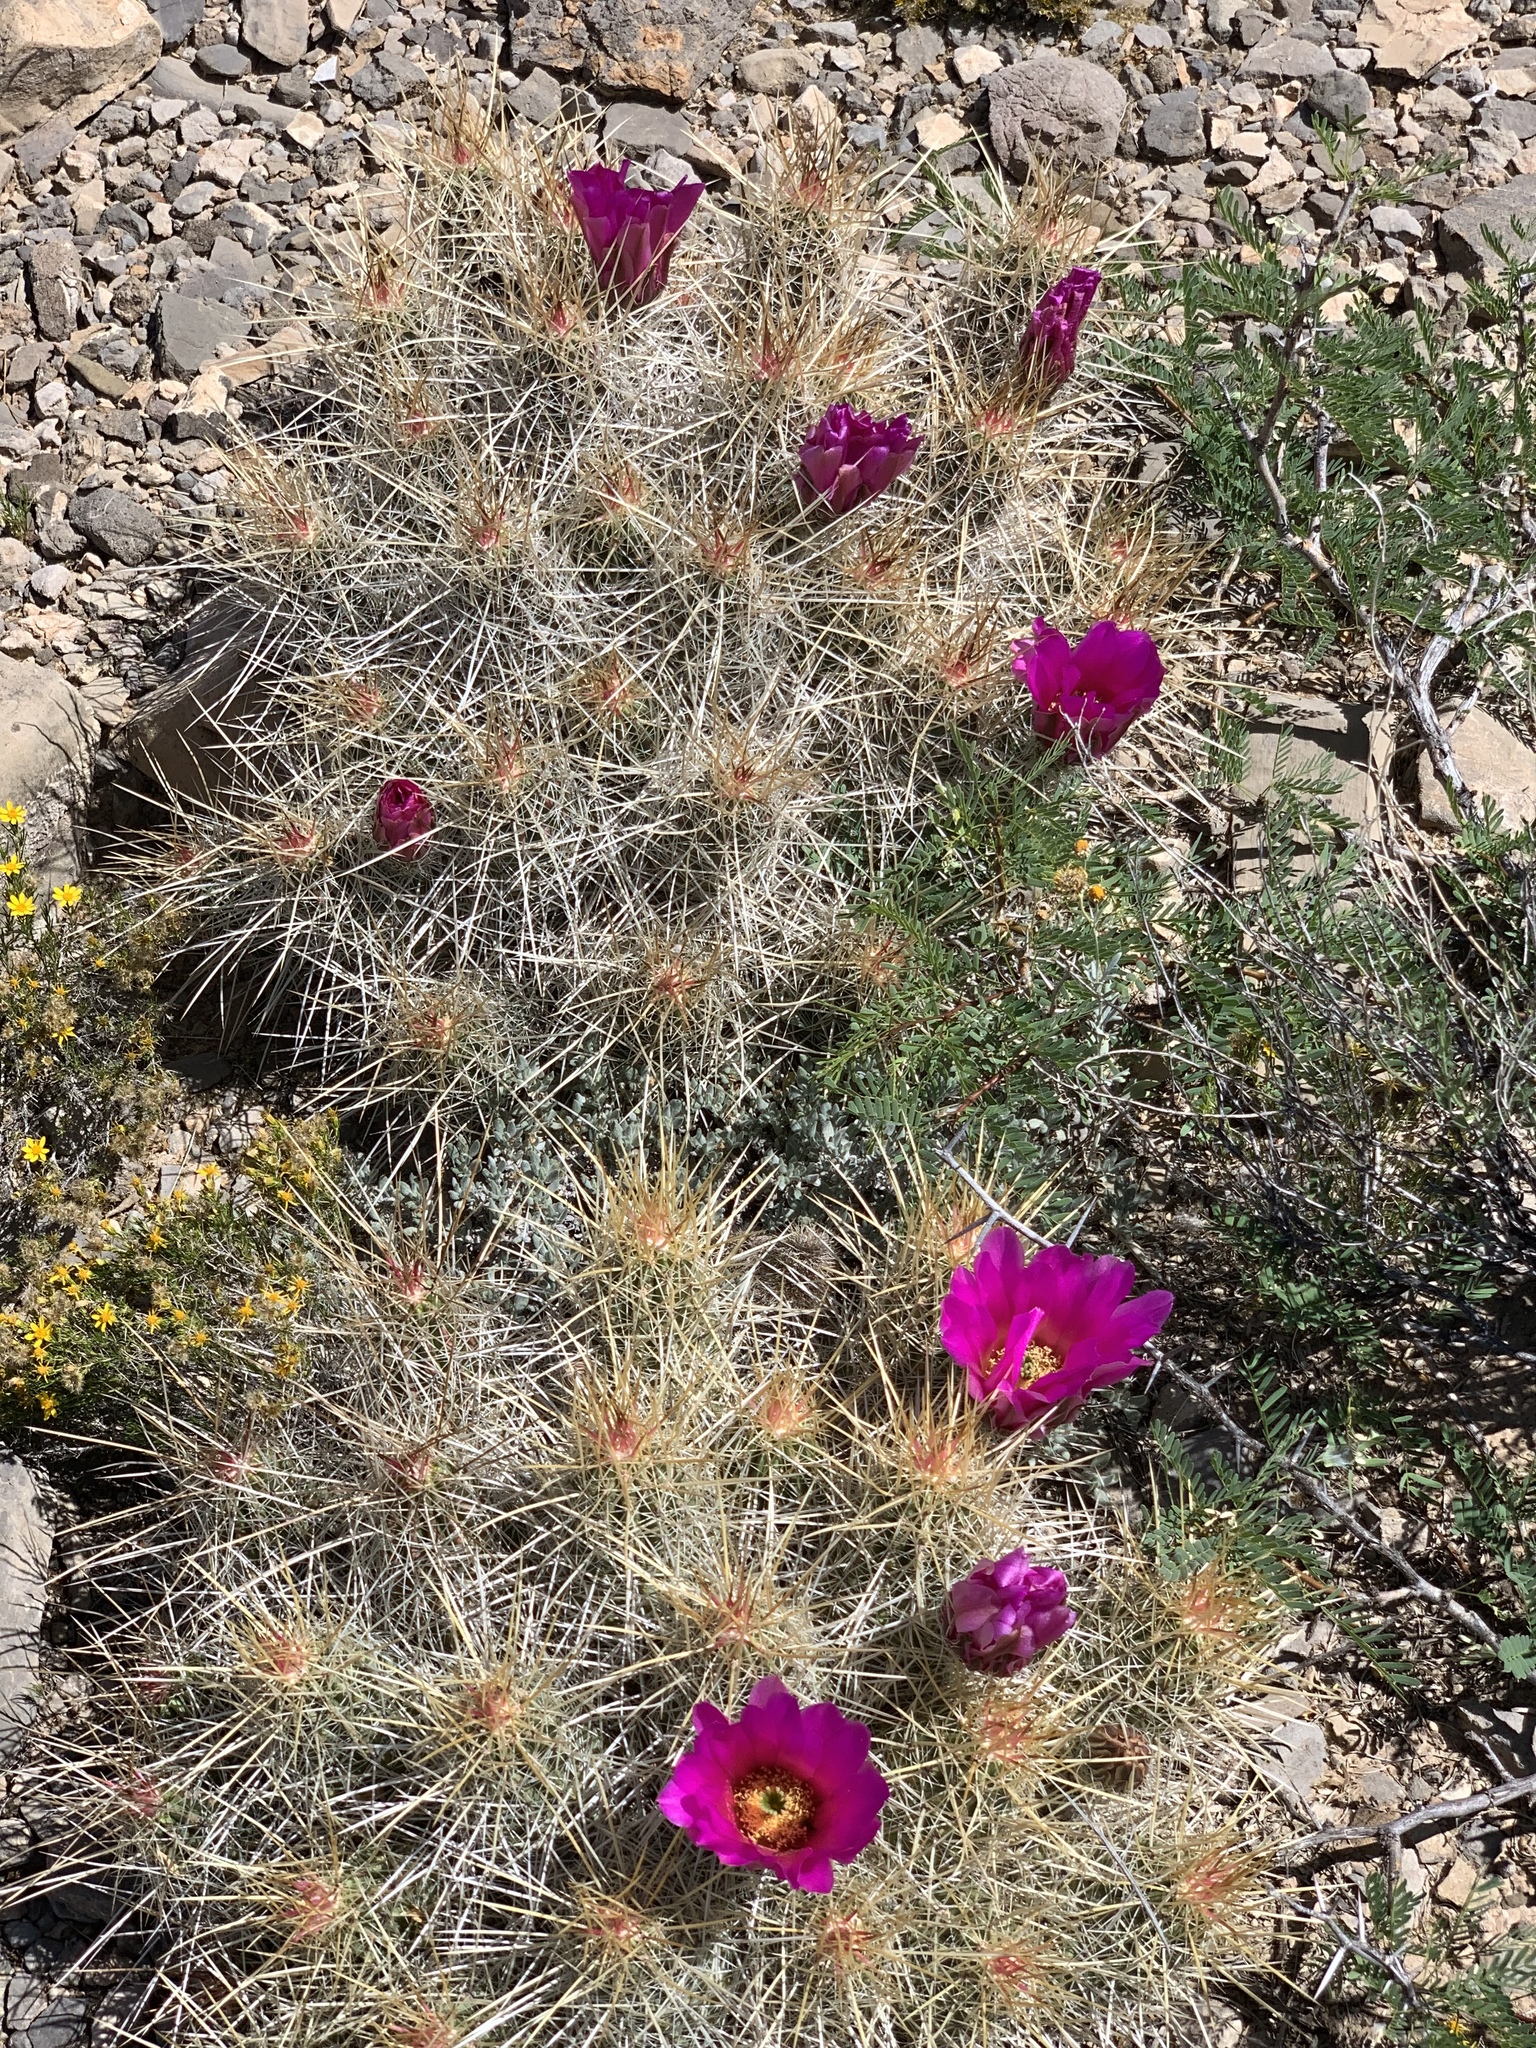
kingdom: Plantae
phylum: Tracheophyta
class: Magnoliopsida
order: Caryophyllales
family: Cactaceae
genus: Echinocereus
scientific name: Echinocereus stramineus
